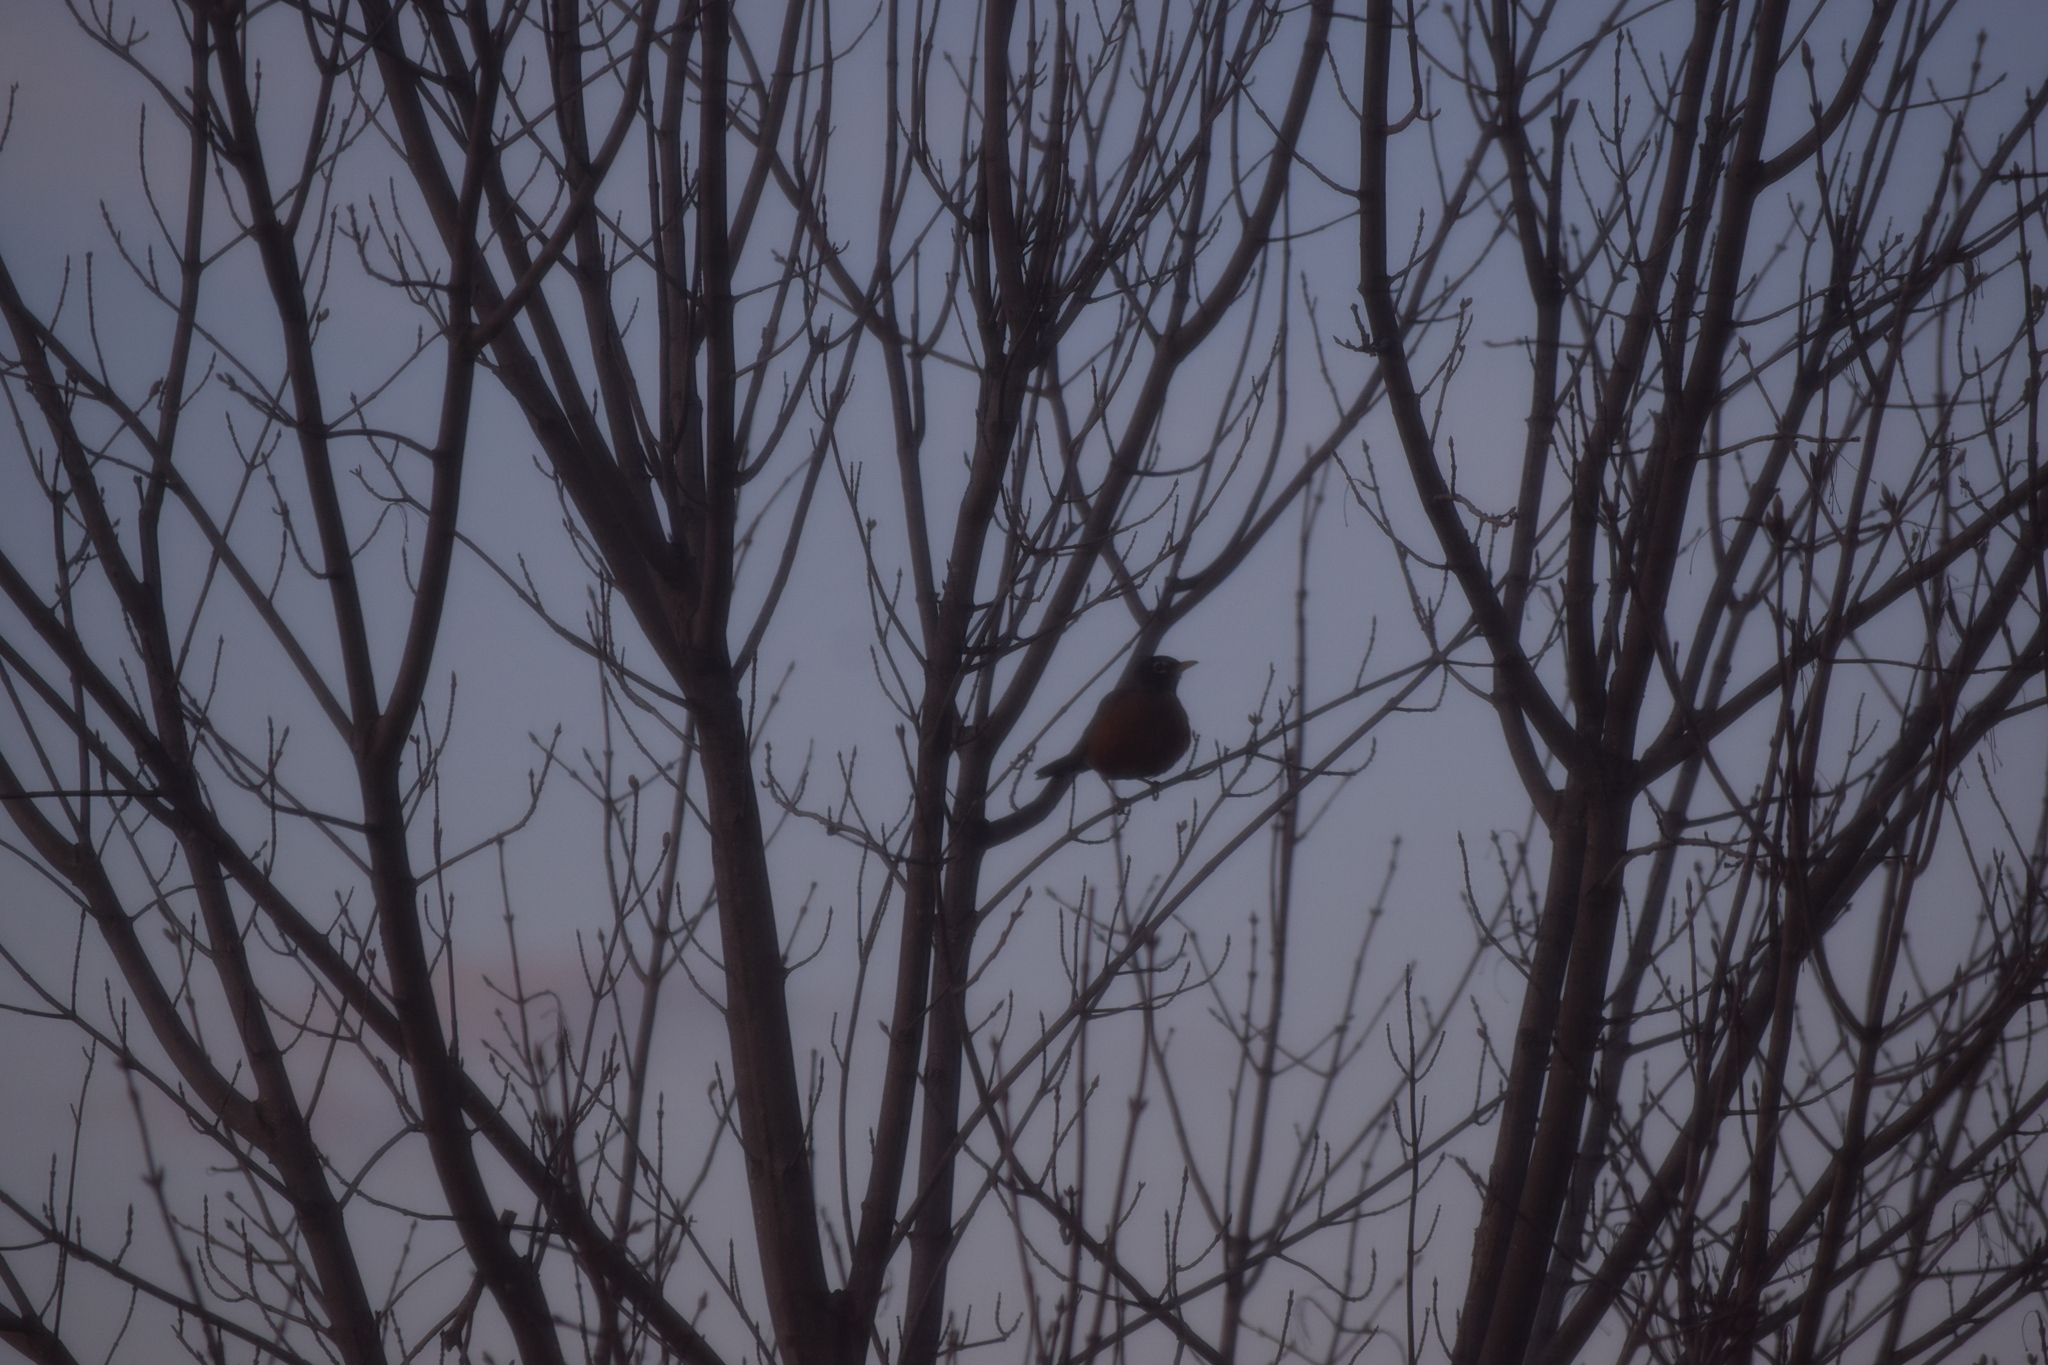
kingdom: Animalia
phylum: Chordata
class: Aves
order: Passeriformes
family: Turdidae
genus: Turdus
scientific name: Turdus migratorius
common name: American robin
